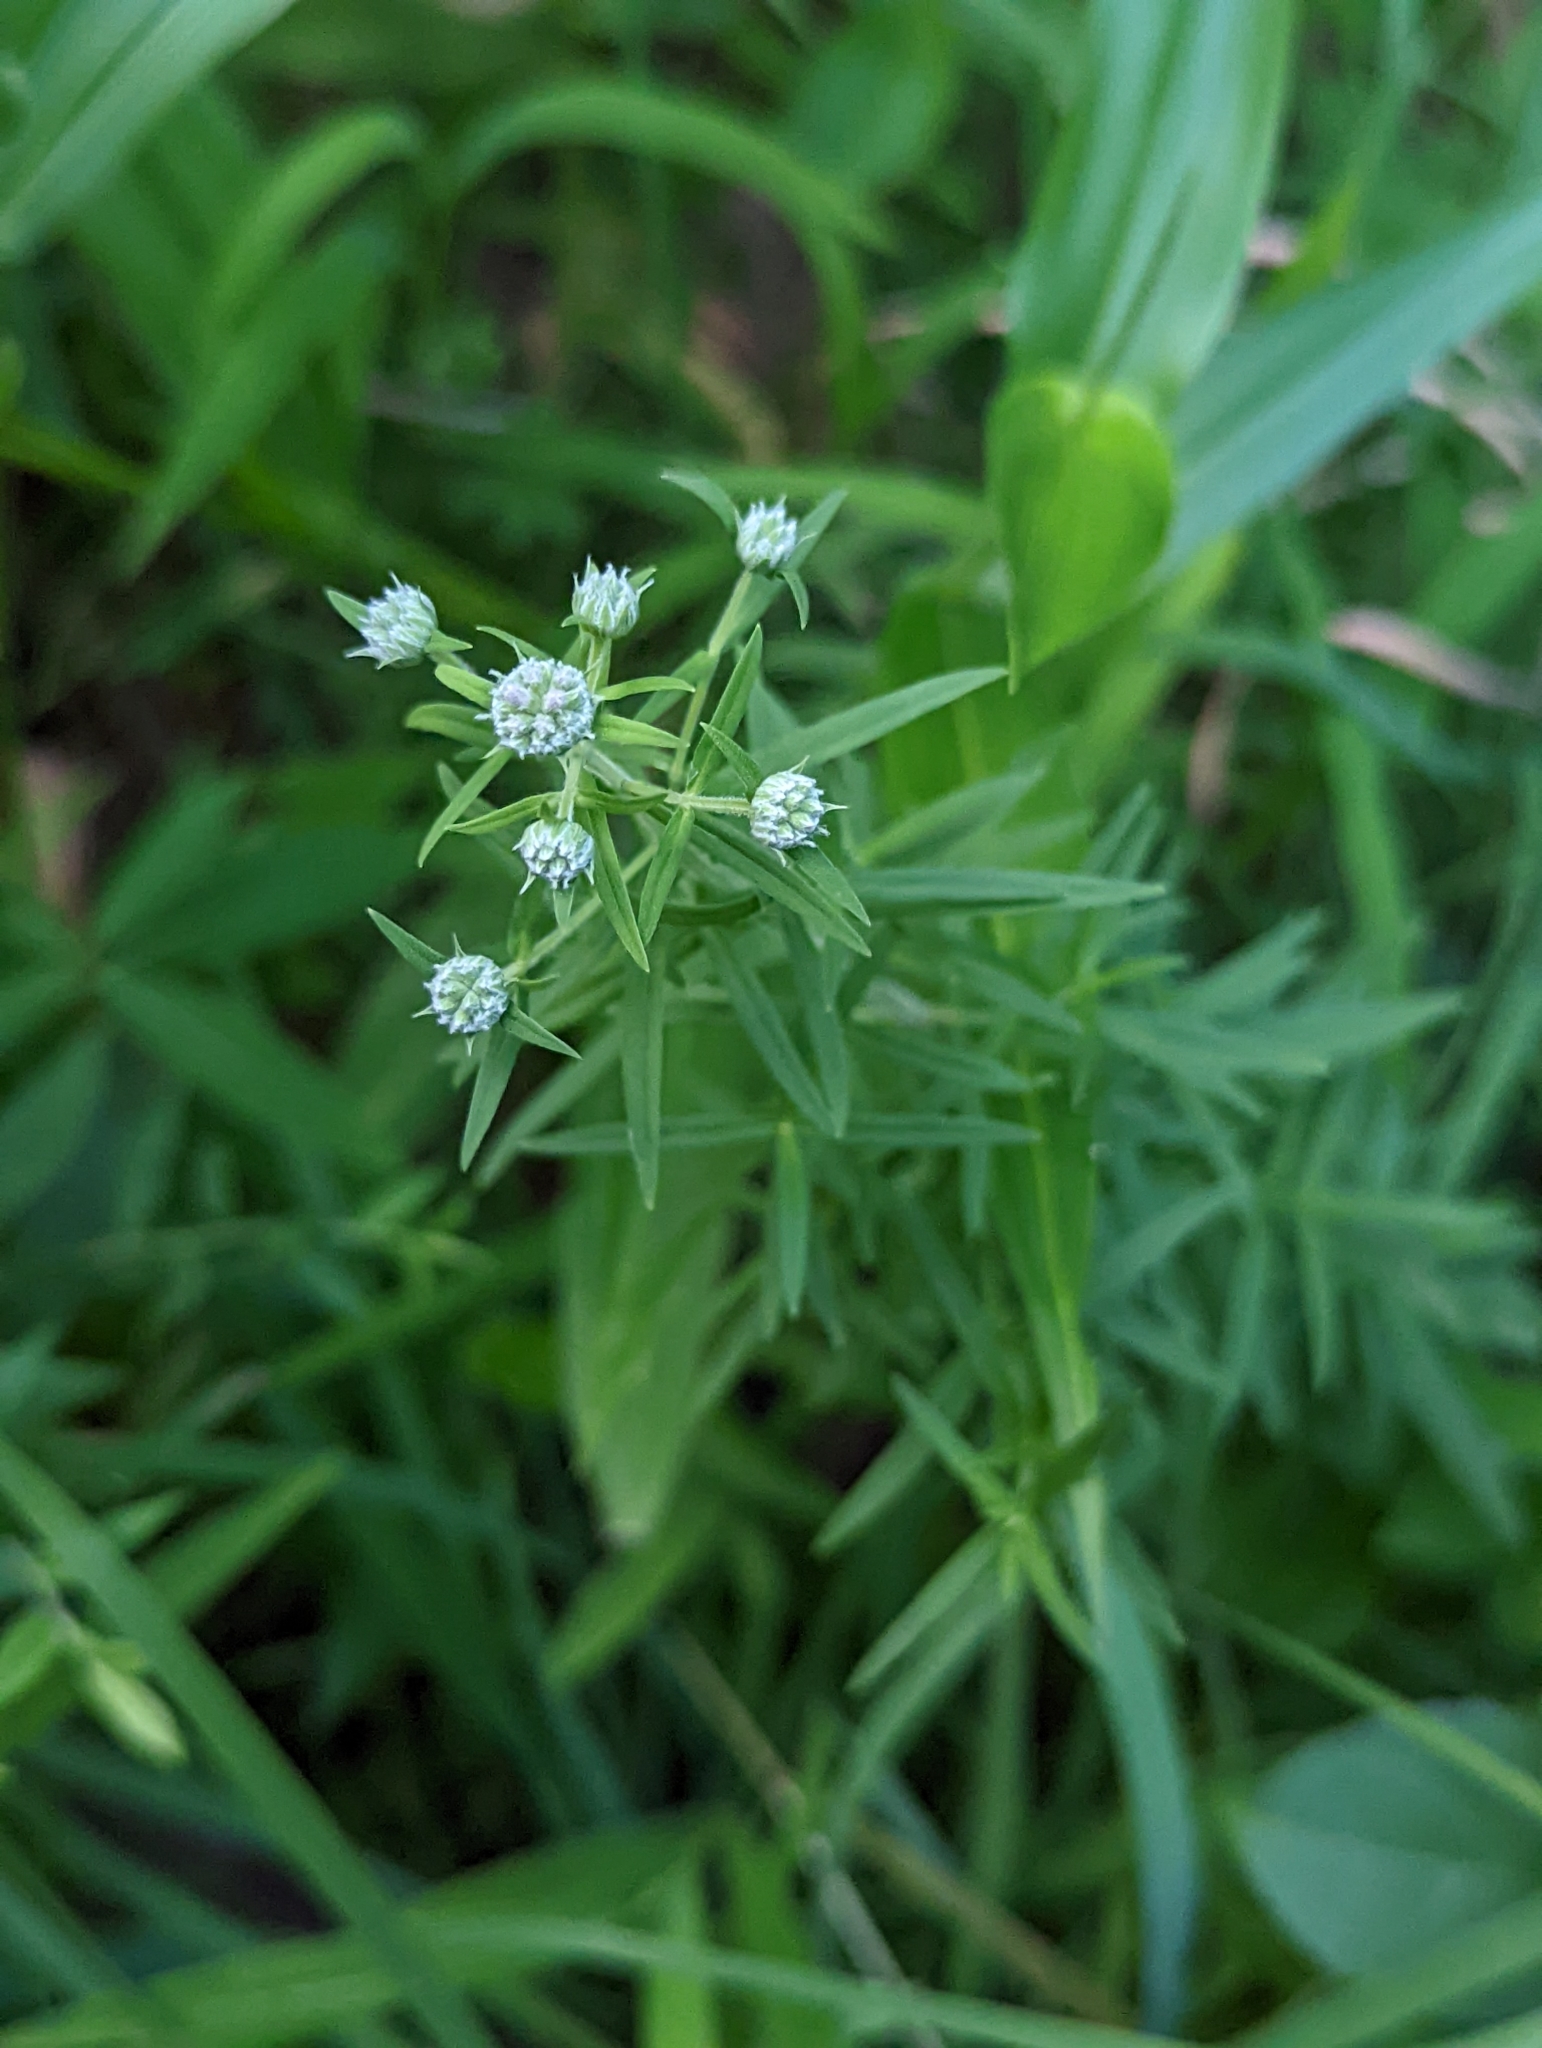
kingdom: Plantae
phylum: Tracheophyta
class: Magnoliopsida
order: Lamiales
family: Lamiaceae
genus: Pycnanthemum
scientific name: Pycnanthemum virginianum
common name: Virginia mountain-mint
